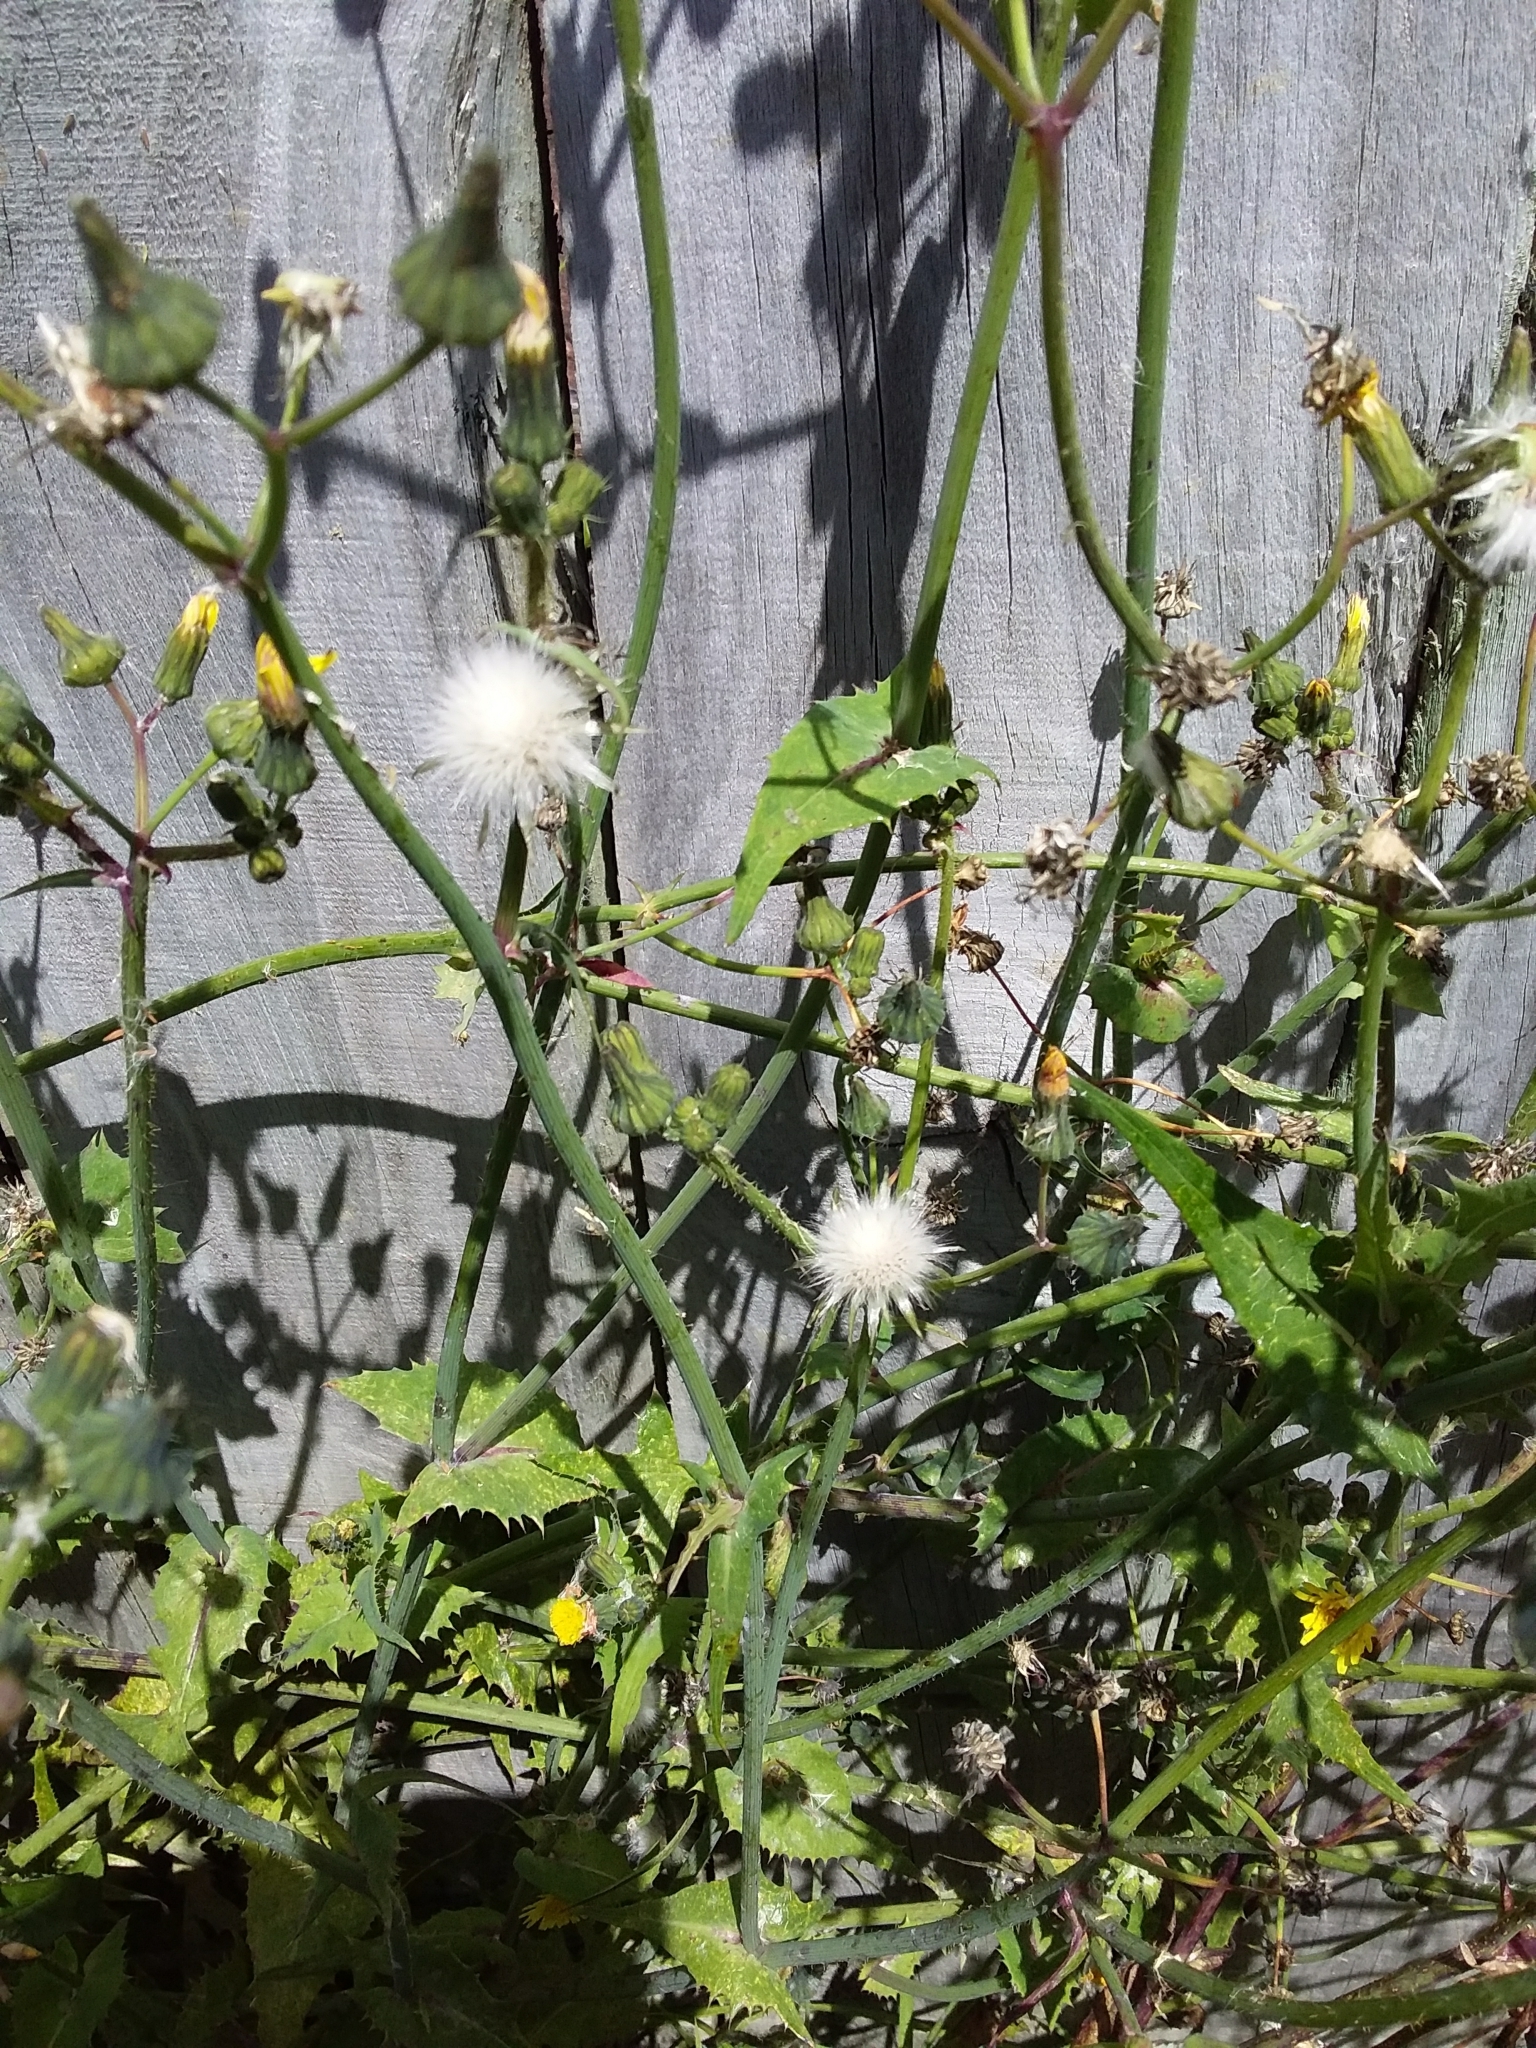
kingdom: Plantae
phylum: Tracheophyta
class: Magnoliopsida
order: Asterales
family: Asteraceae
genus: Sonchus
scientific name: Sonchus oleraceus
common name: Common sowthistle
